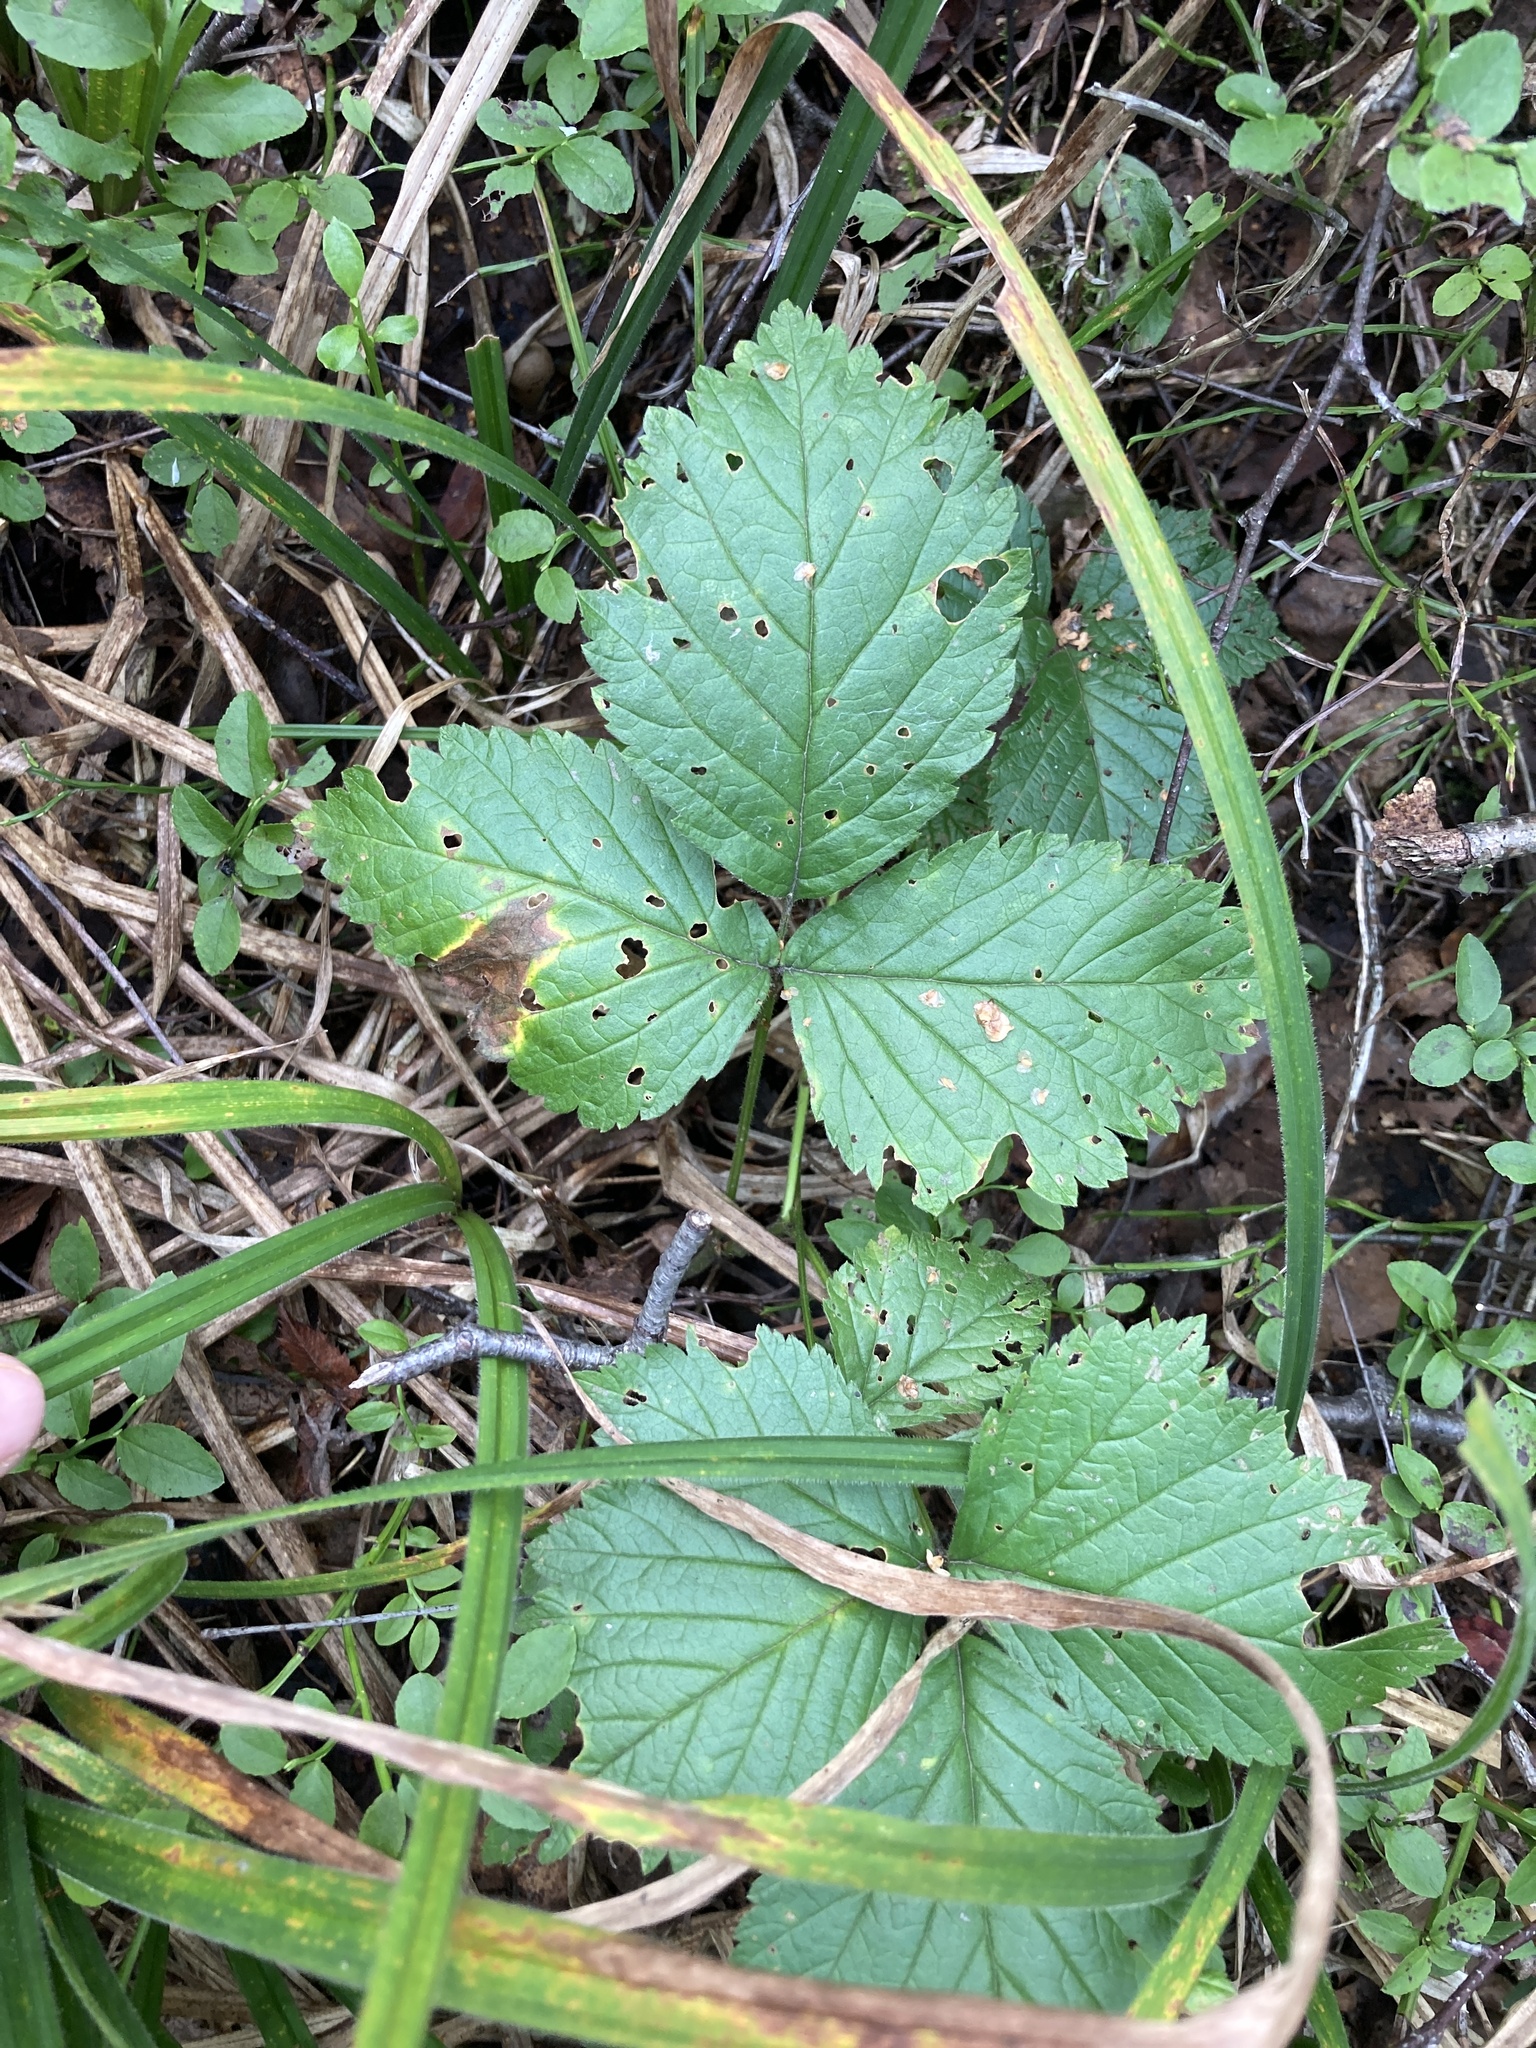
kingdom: Plantae
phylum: Tracheophyta
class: Magnoliopsida
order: Rosales
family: Rosaceae
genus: Rubus
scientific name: Rubus saxatilis
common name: Stone bramble
